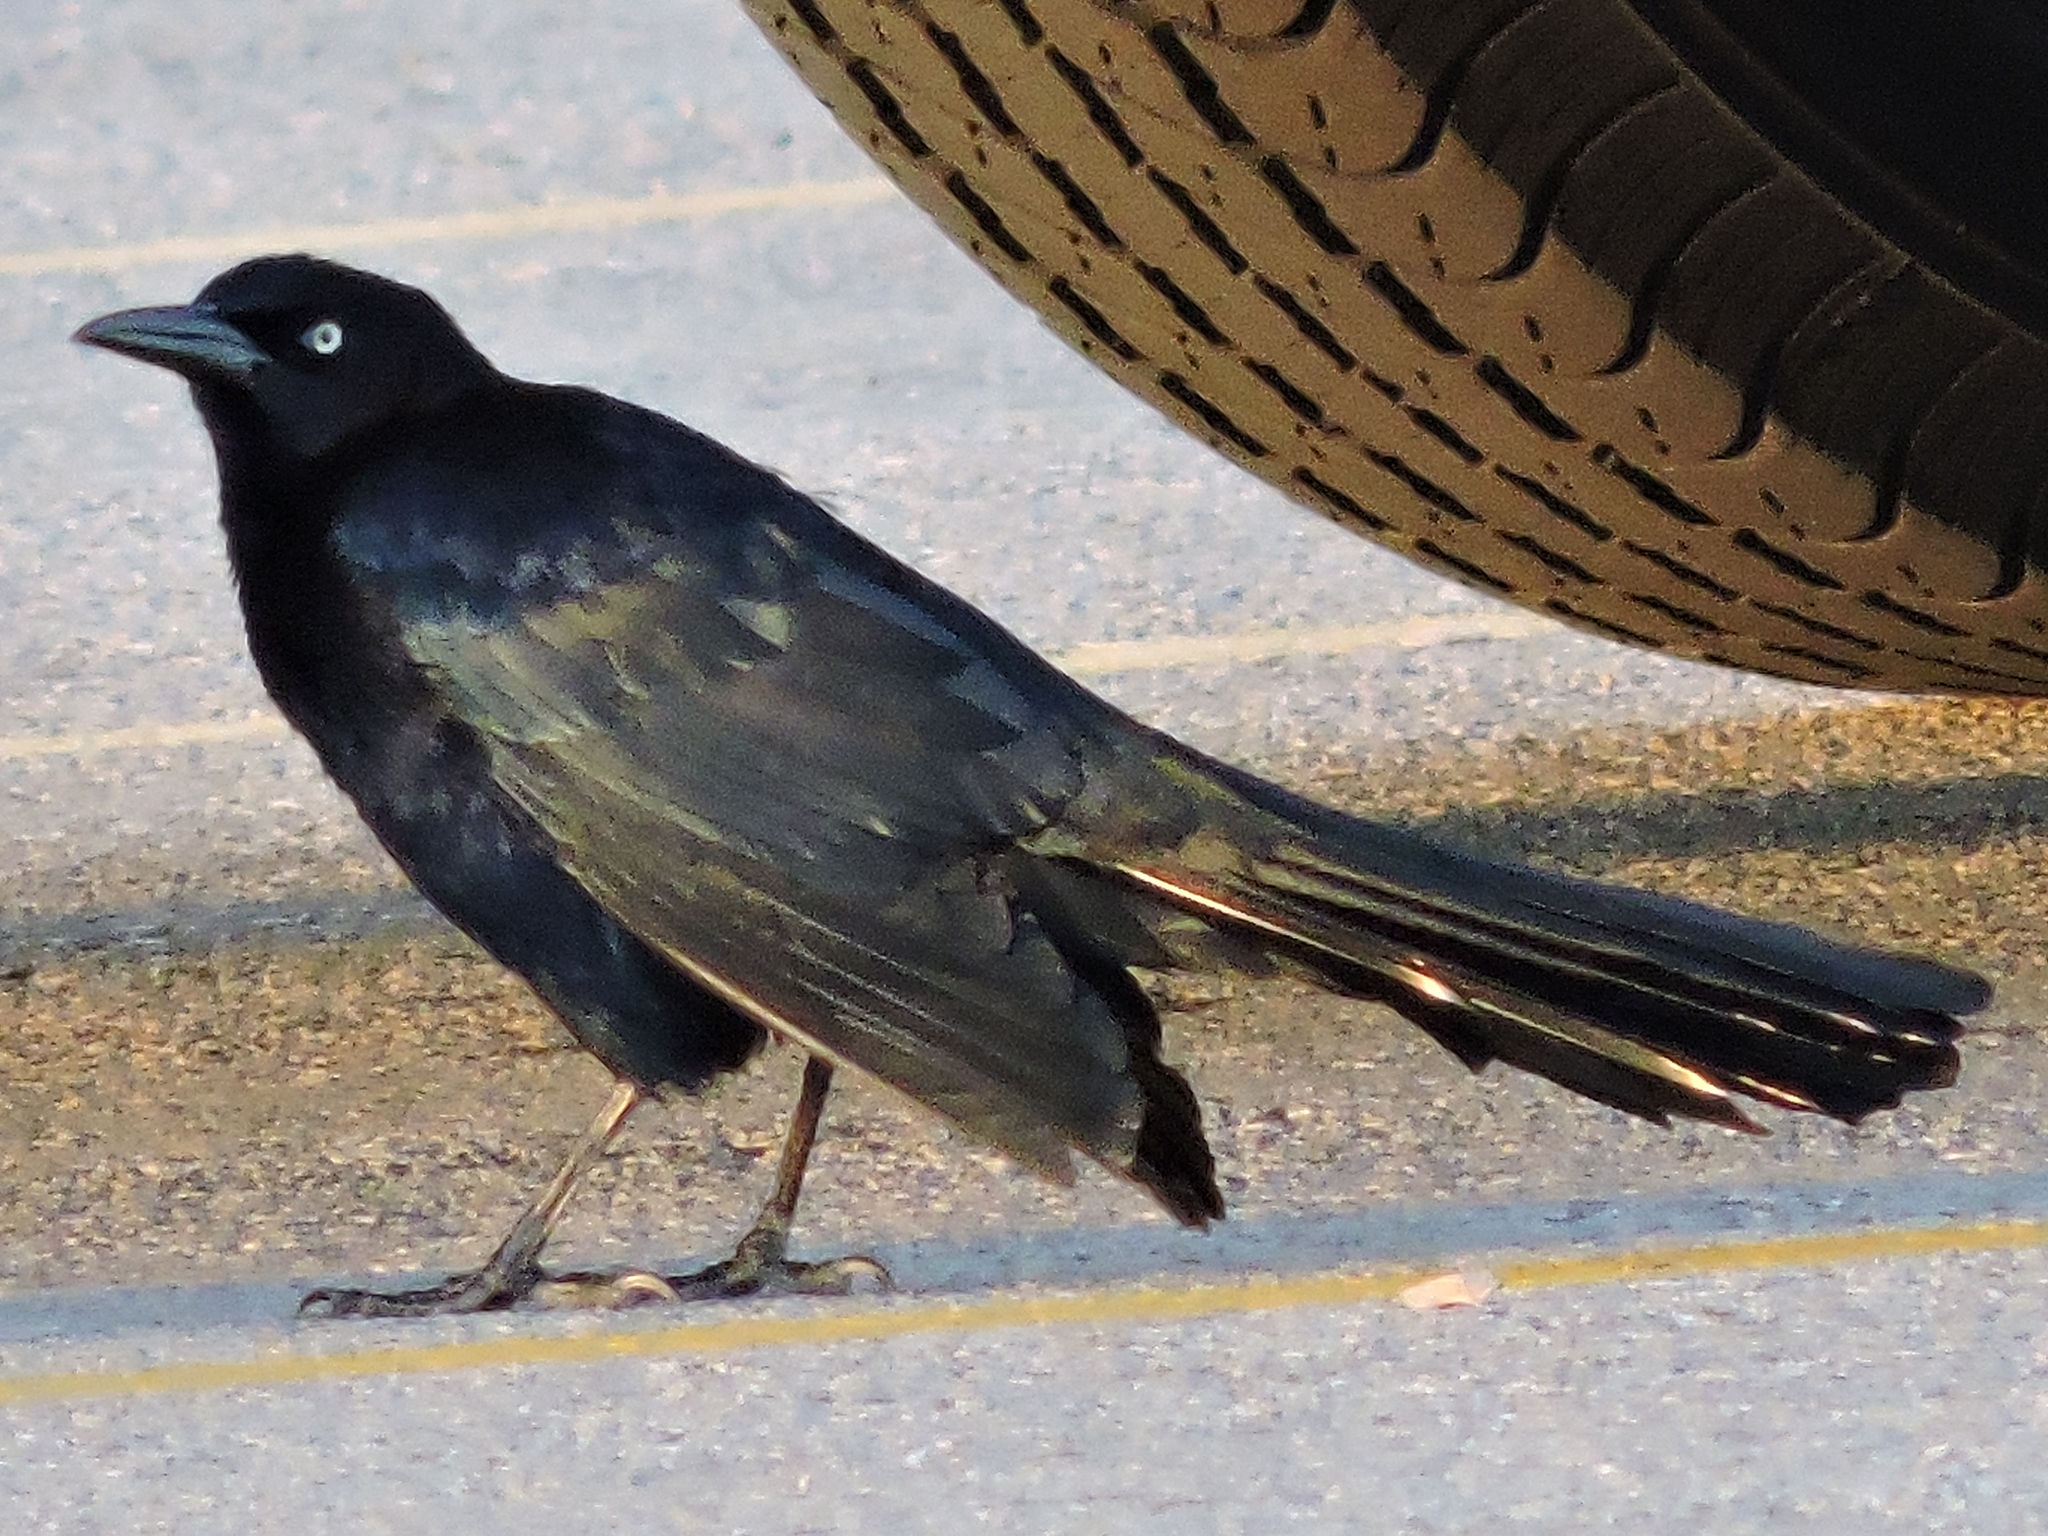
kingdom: Animalia
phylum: Chordata
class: Aves
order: Passeriformes
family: Icteridae
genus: Quiscalus
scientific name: Quiscalus mexicanus
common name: Great-tailed grackle
